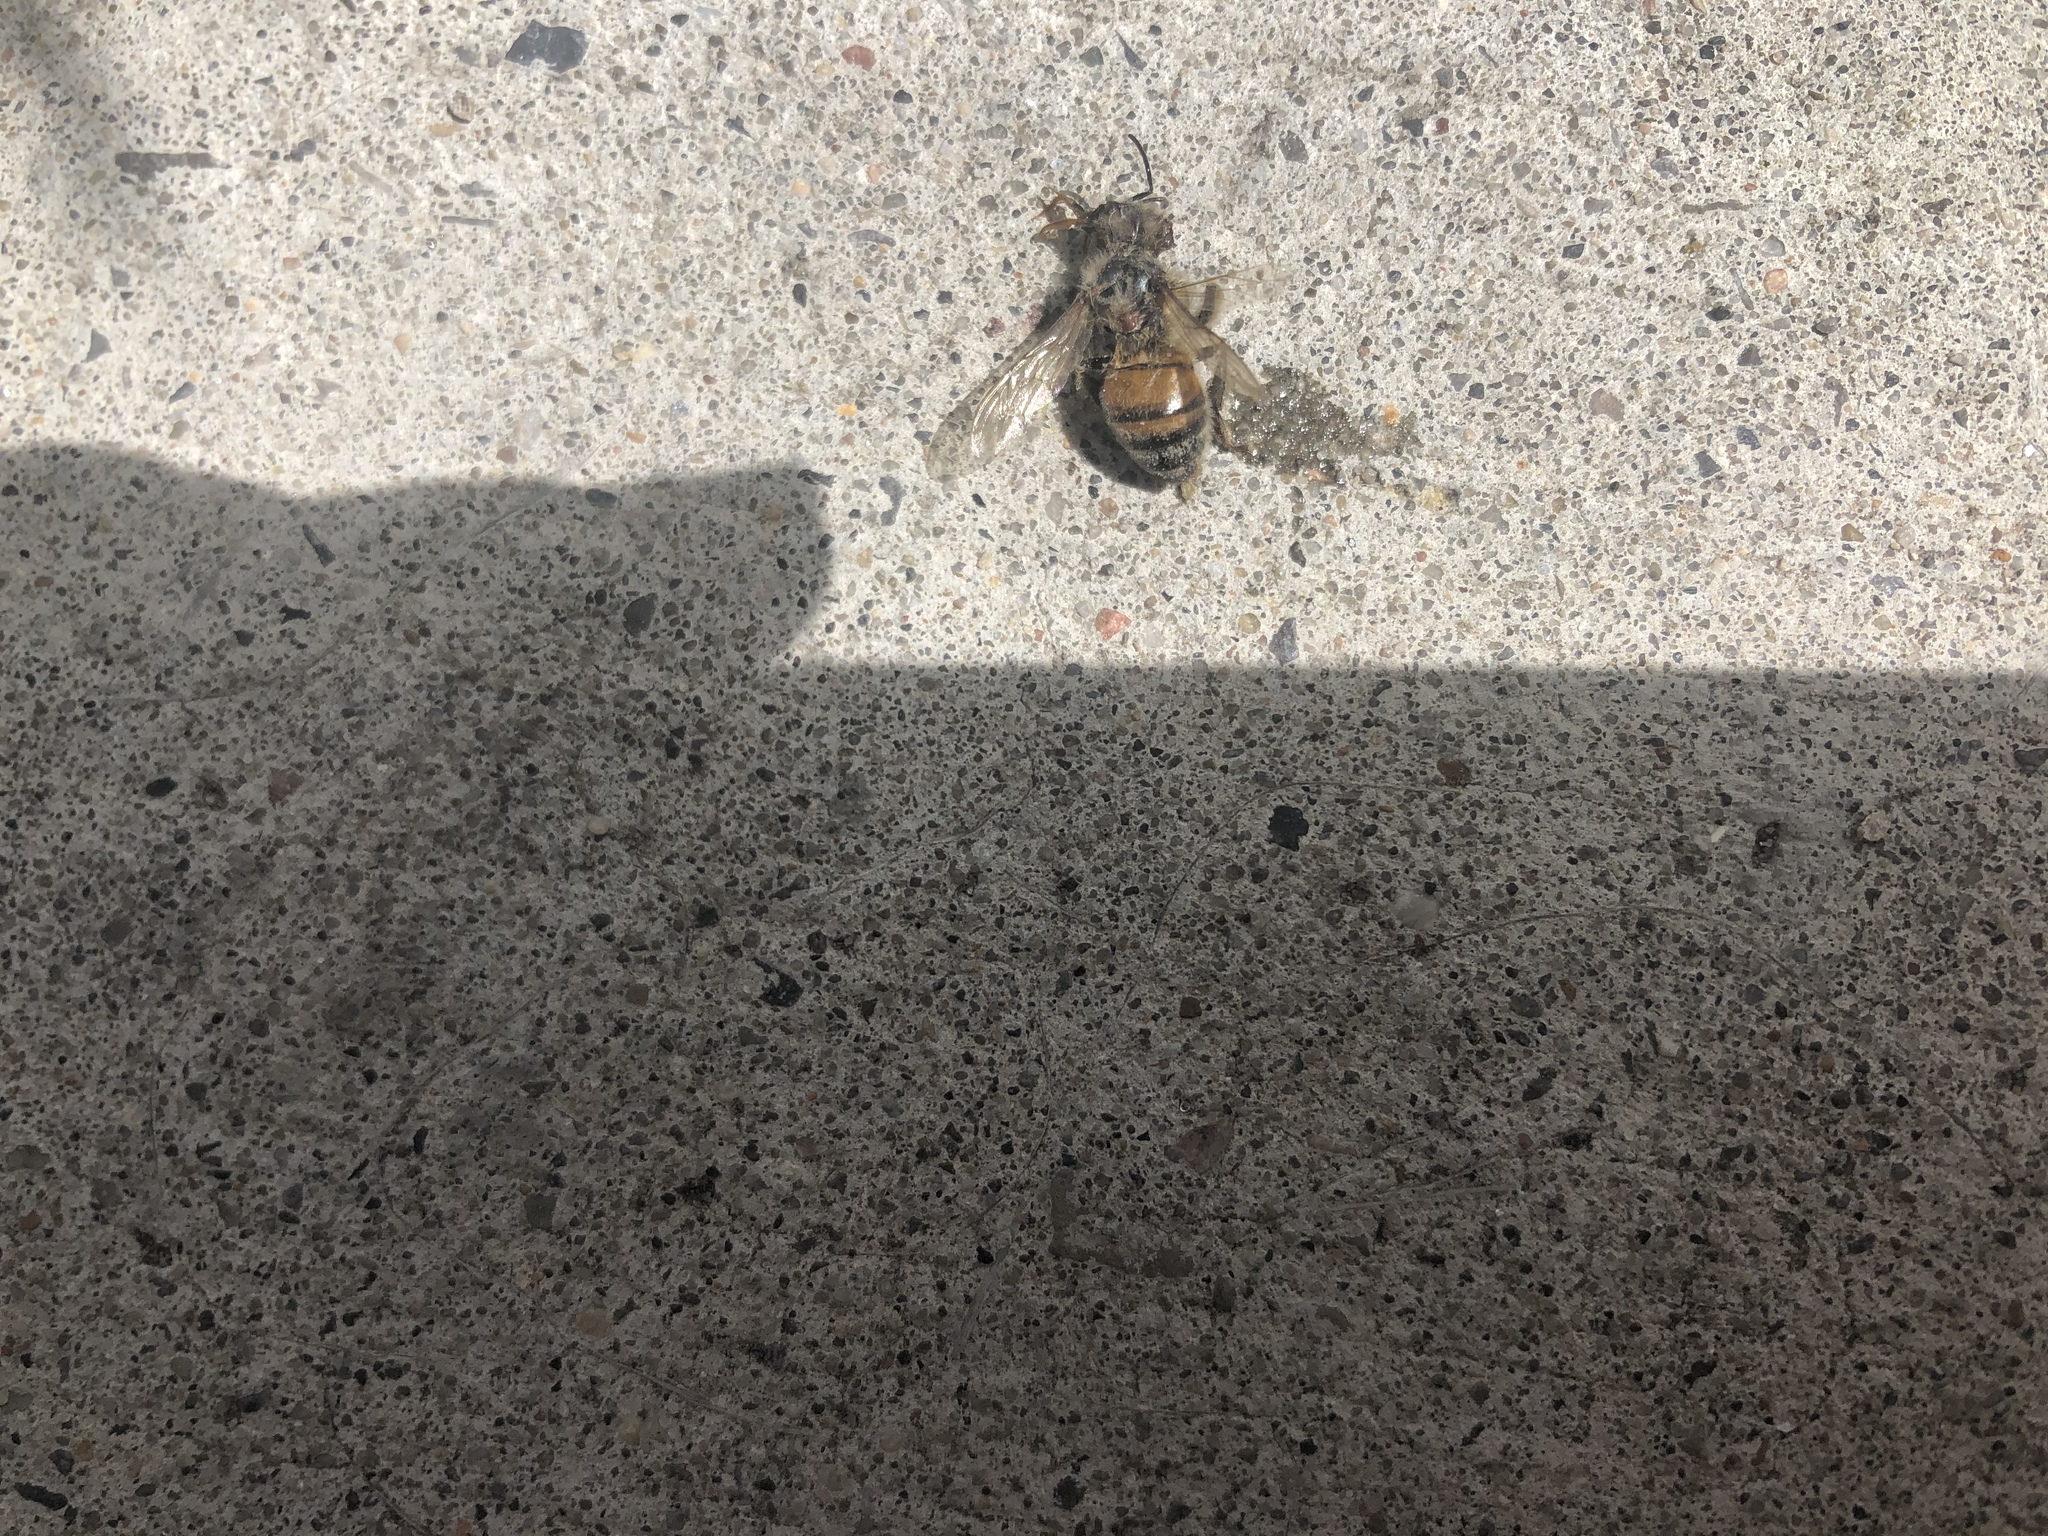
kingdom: Animalia
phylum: Arthropoda
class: Insecta
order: Hymenoptera
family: Apidae
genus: Apis
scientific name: Apis mellifera
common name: Honey bee
